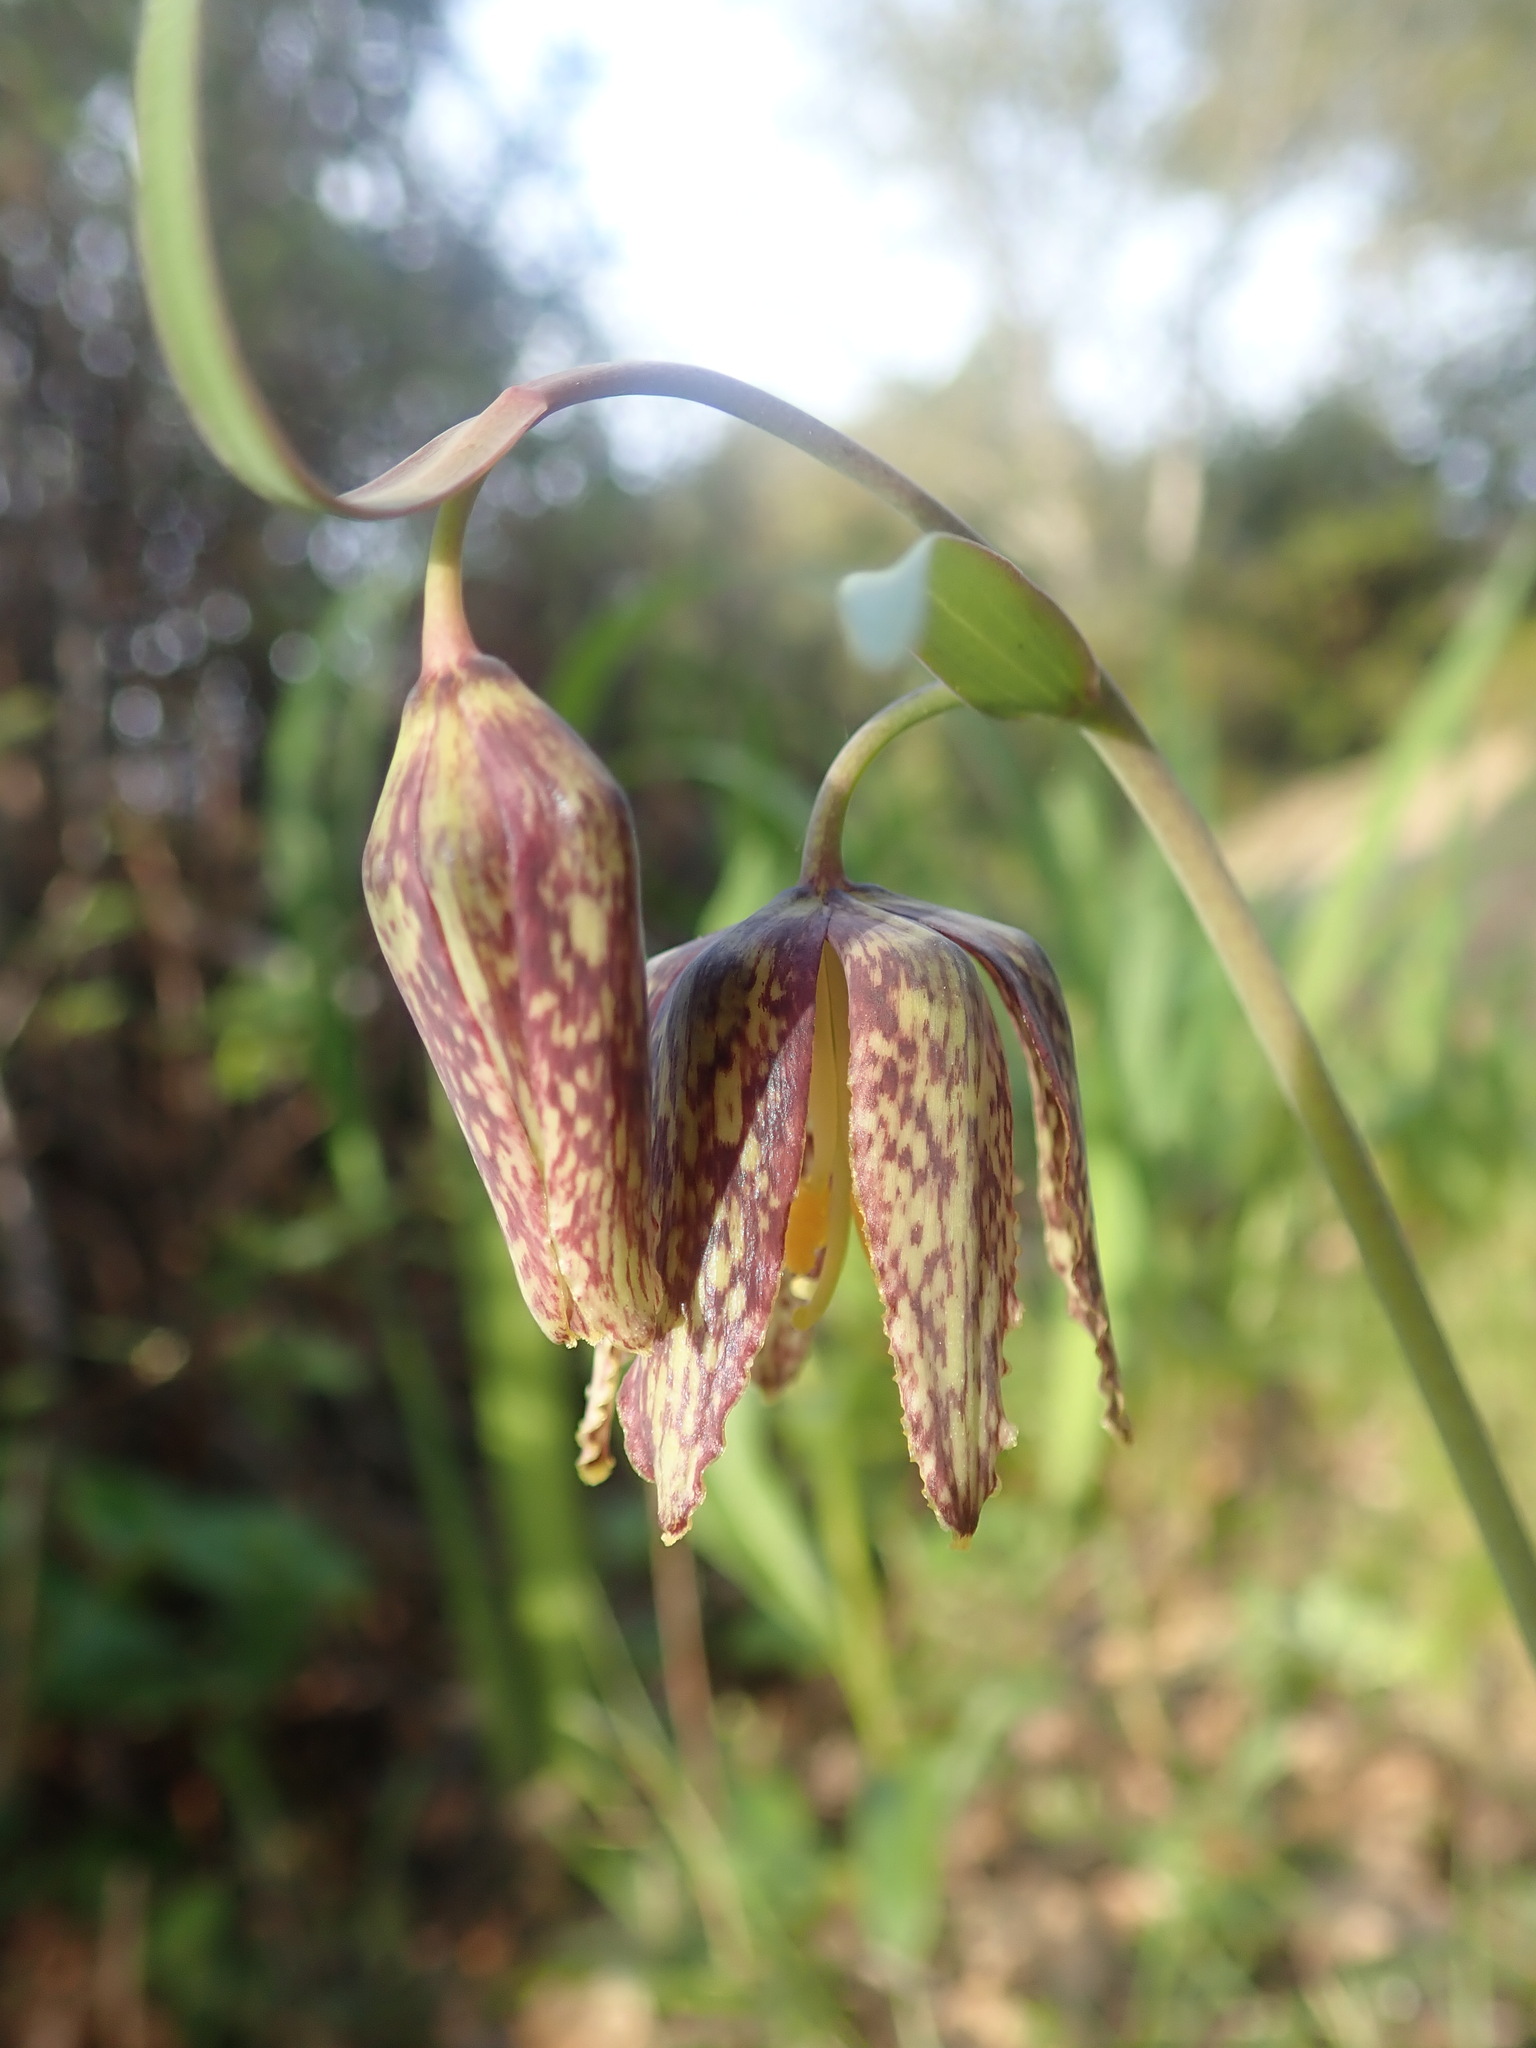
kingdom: Plantae
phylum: Tracheophyta
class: Liliopsida
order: Liliales
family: Liliaceae
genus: Fritillaria
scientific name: Fritillaria affinis
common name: Ojai fritillary
